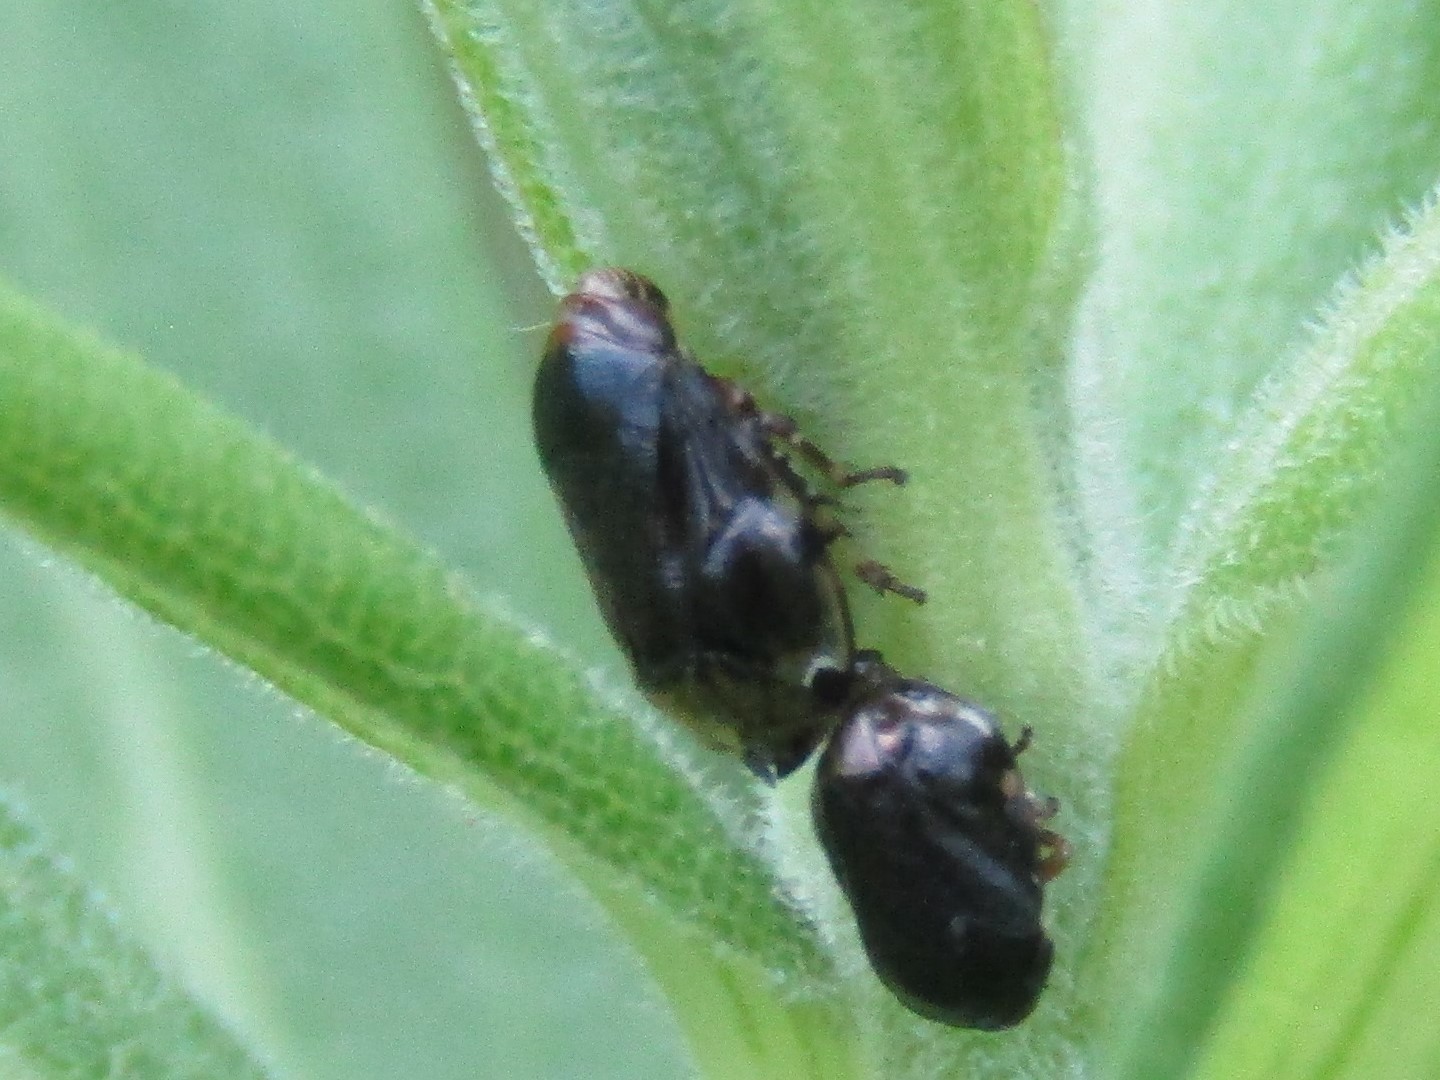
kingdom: Animalia
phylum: Arthropoda
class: Insecta
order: Hemiptera
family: Clastopteridae
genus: Clastoptera
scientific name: Clastoptera xanthocephala
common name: Sunflower spittlebug
